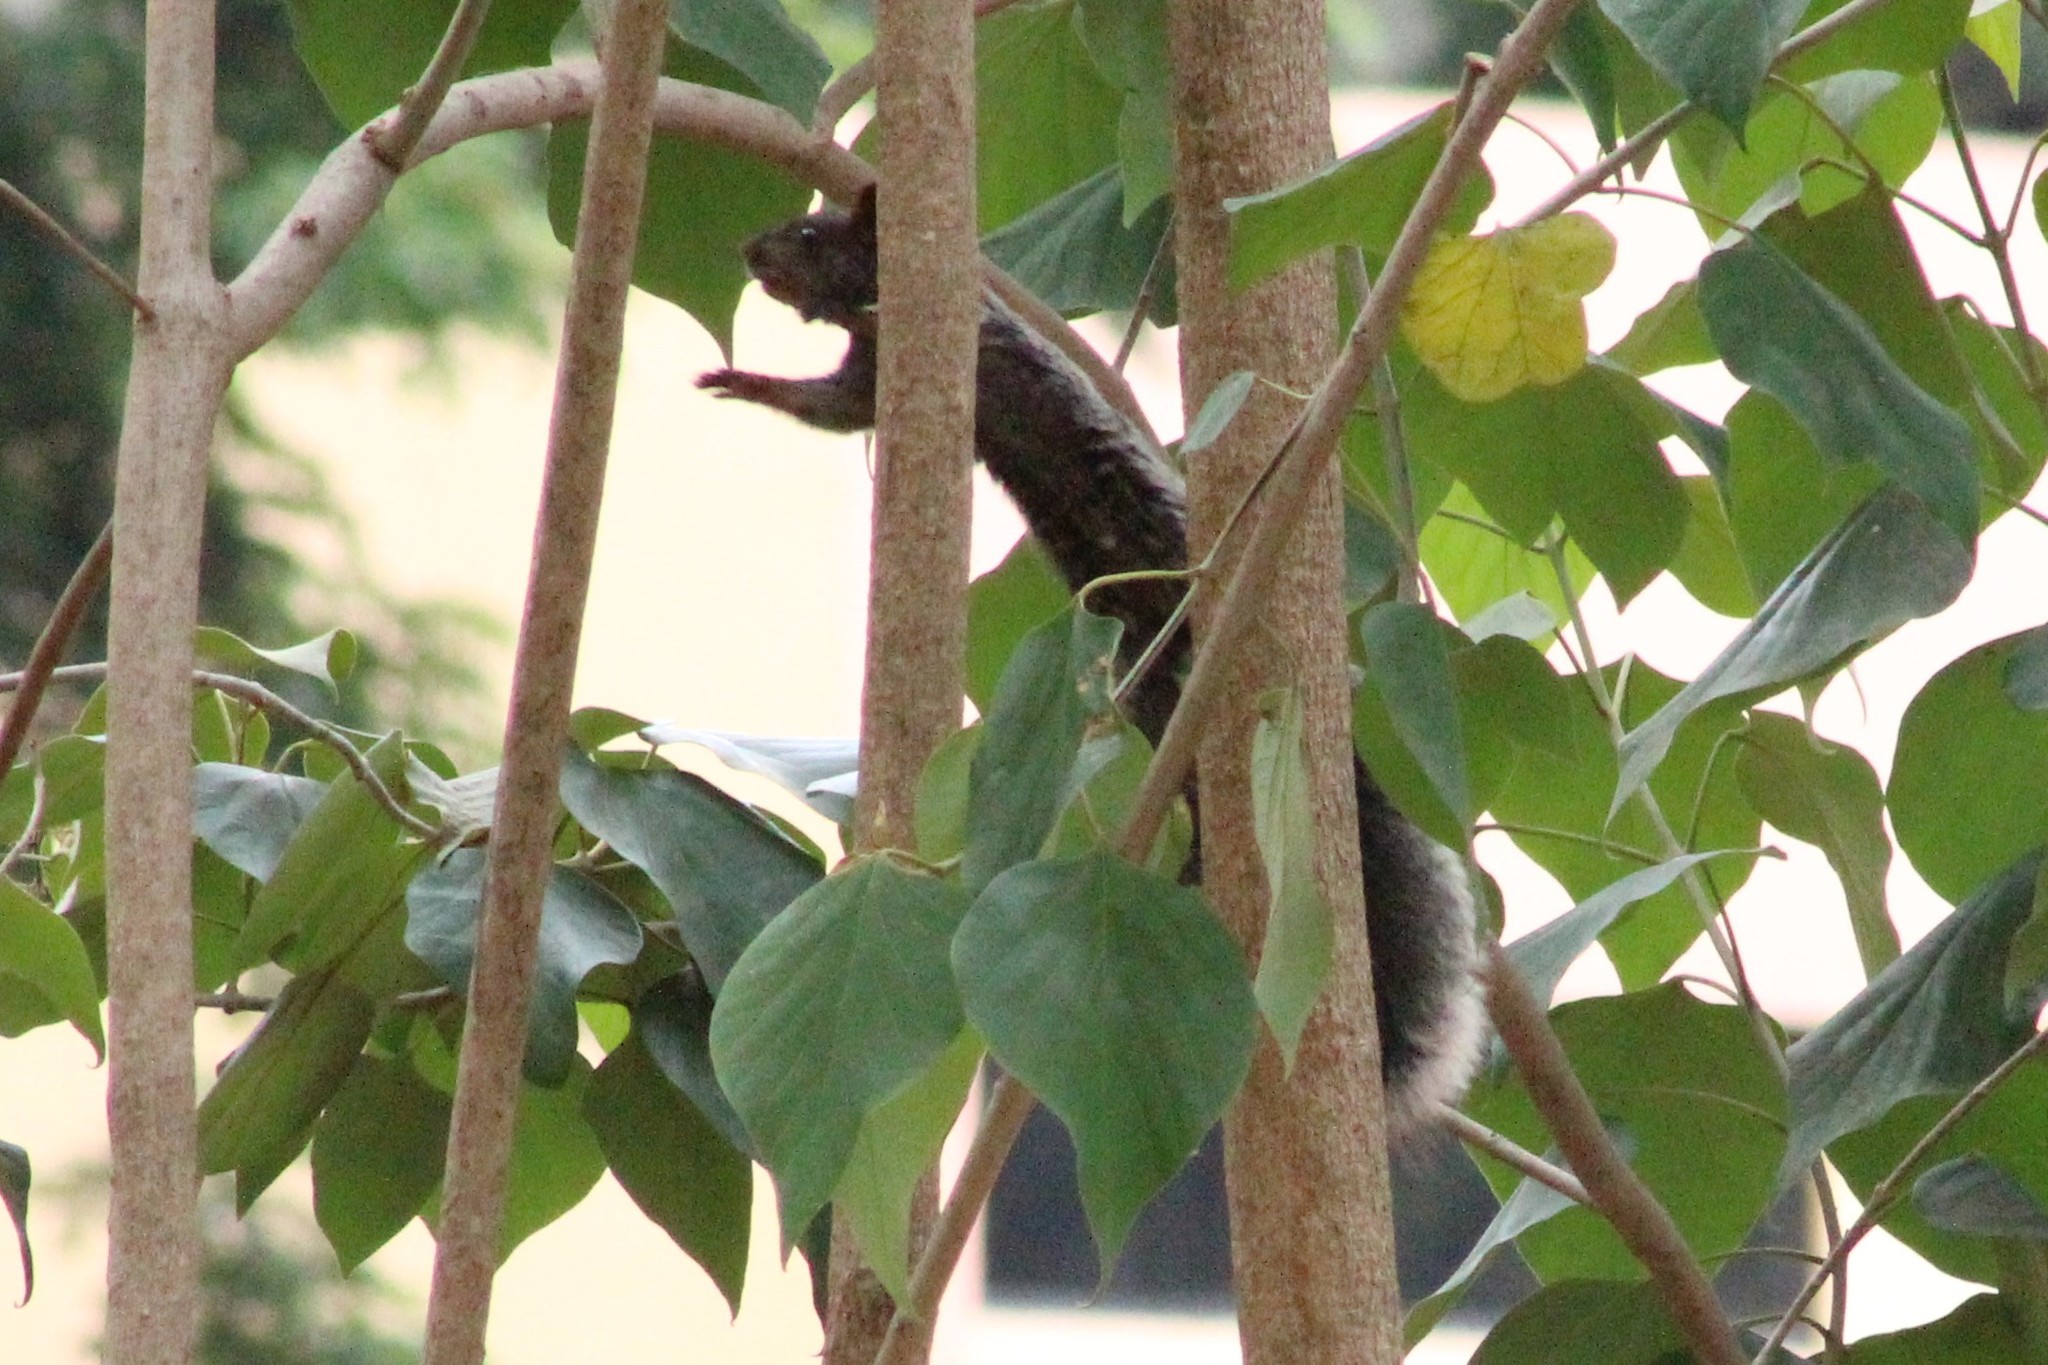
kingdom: Animalia
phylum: Chordata
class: Mammalia
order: Rodentia
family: Sciuridae
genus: Sciurus
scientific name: Sciurus stramineus
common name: Guayaquil squirrel
